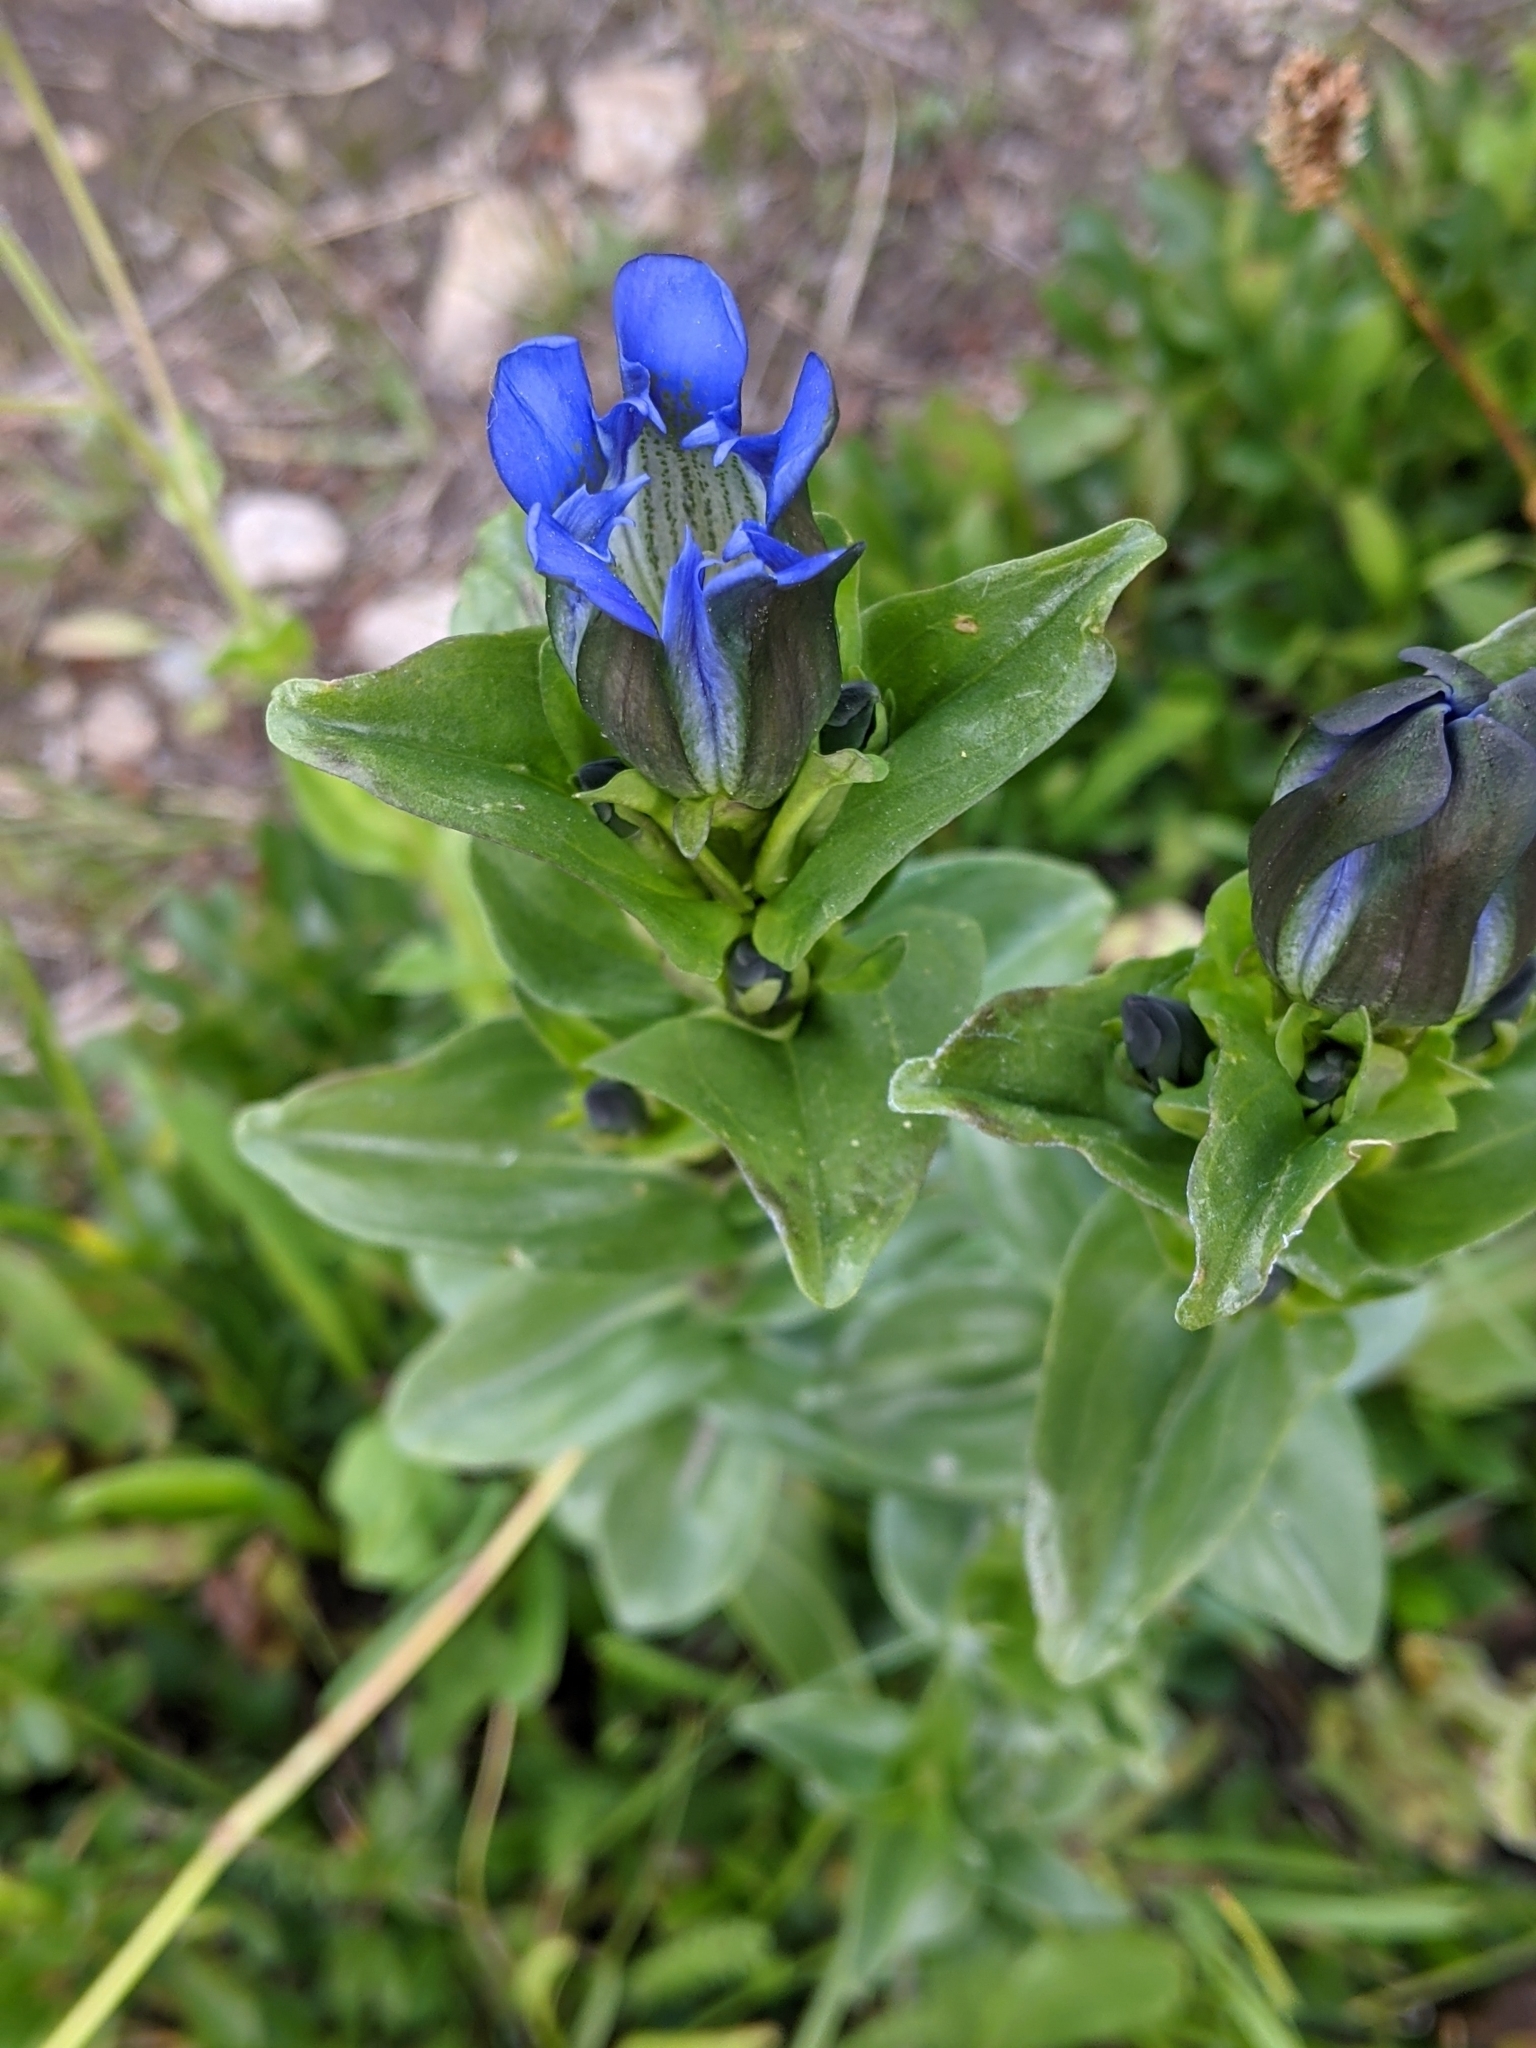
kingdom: Plantae
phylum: Tracheophyta
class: Magnoliopsida
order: Gentianales
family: Gentianaceae
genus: Gentiana
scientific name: Gentiana parryi
